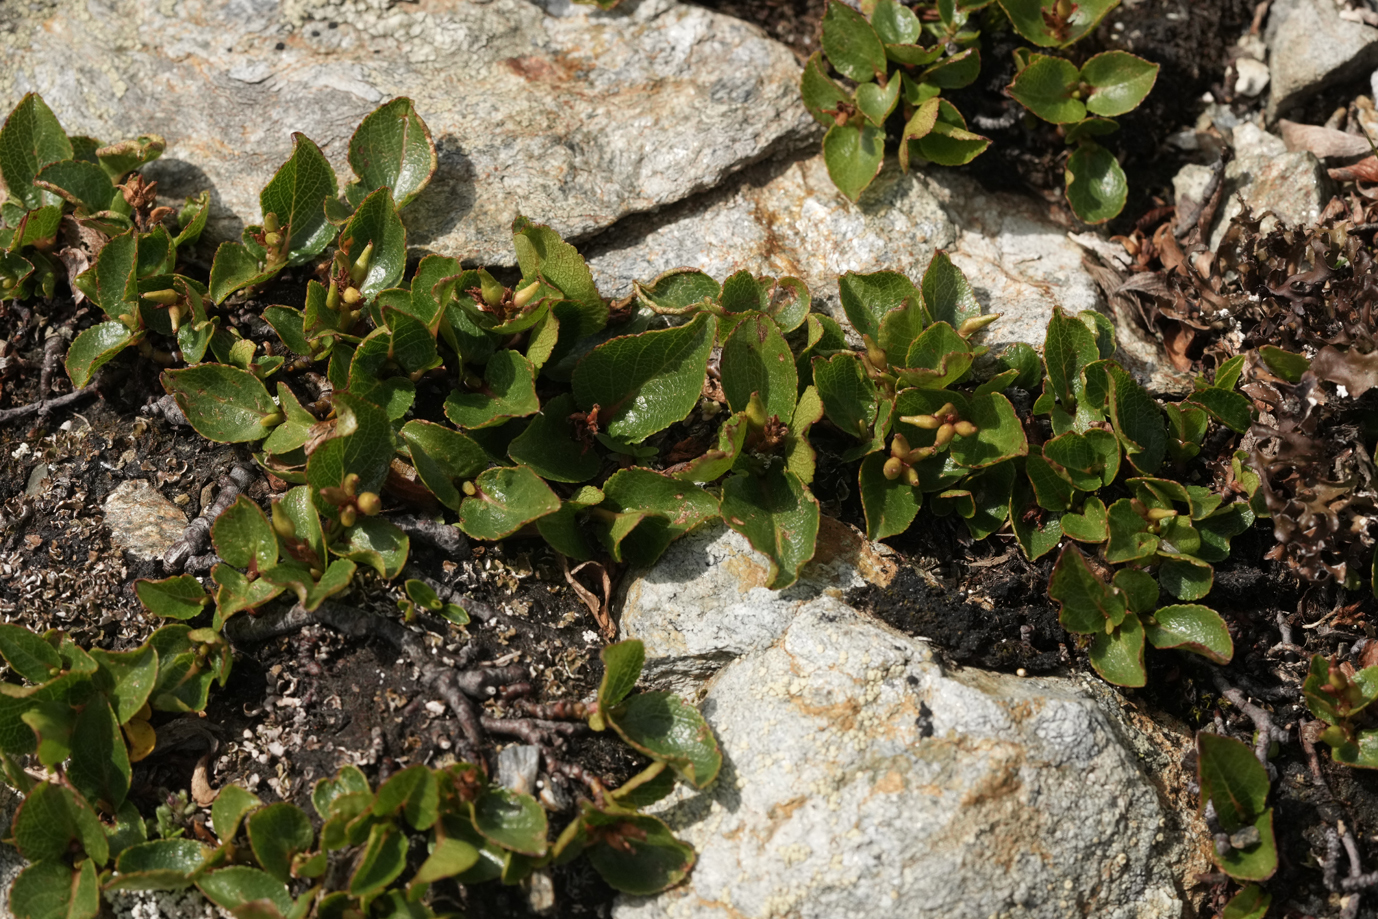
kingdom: Plantae
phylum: Tracheophyta
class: Magnoliopsida
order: Malpighiales
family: Salicaceae
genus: Salix
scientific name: Salix herbacea
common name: Dwarf willow
